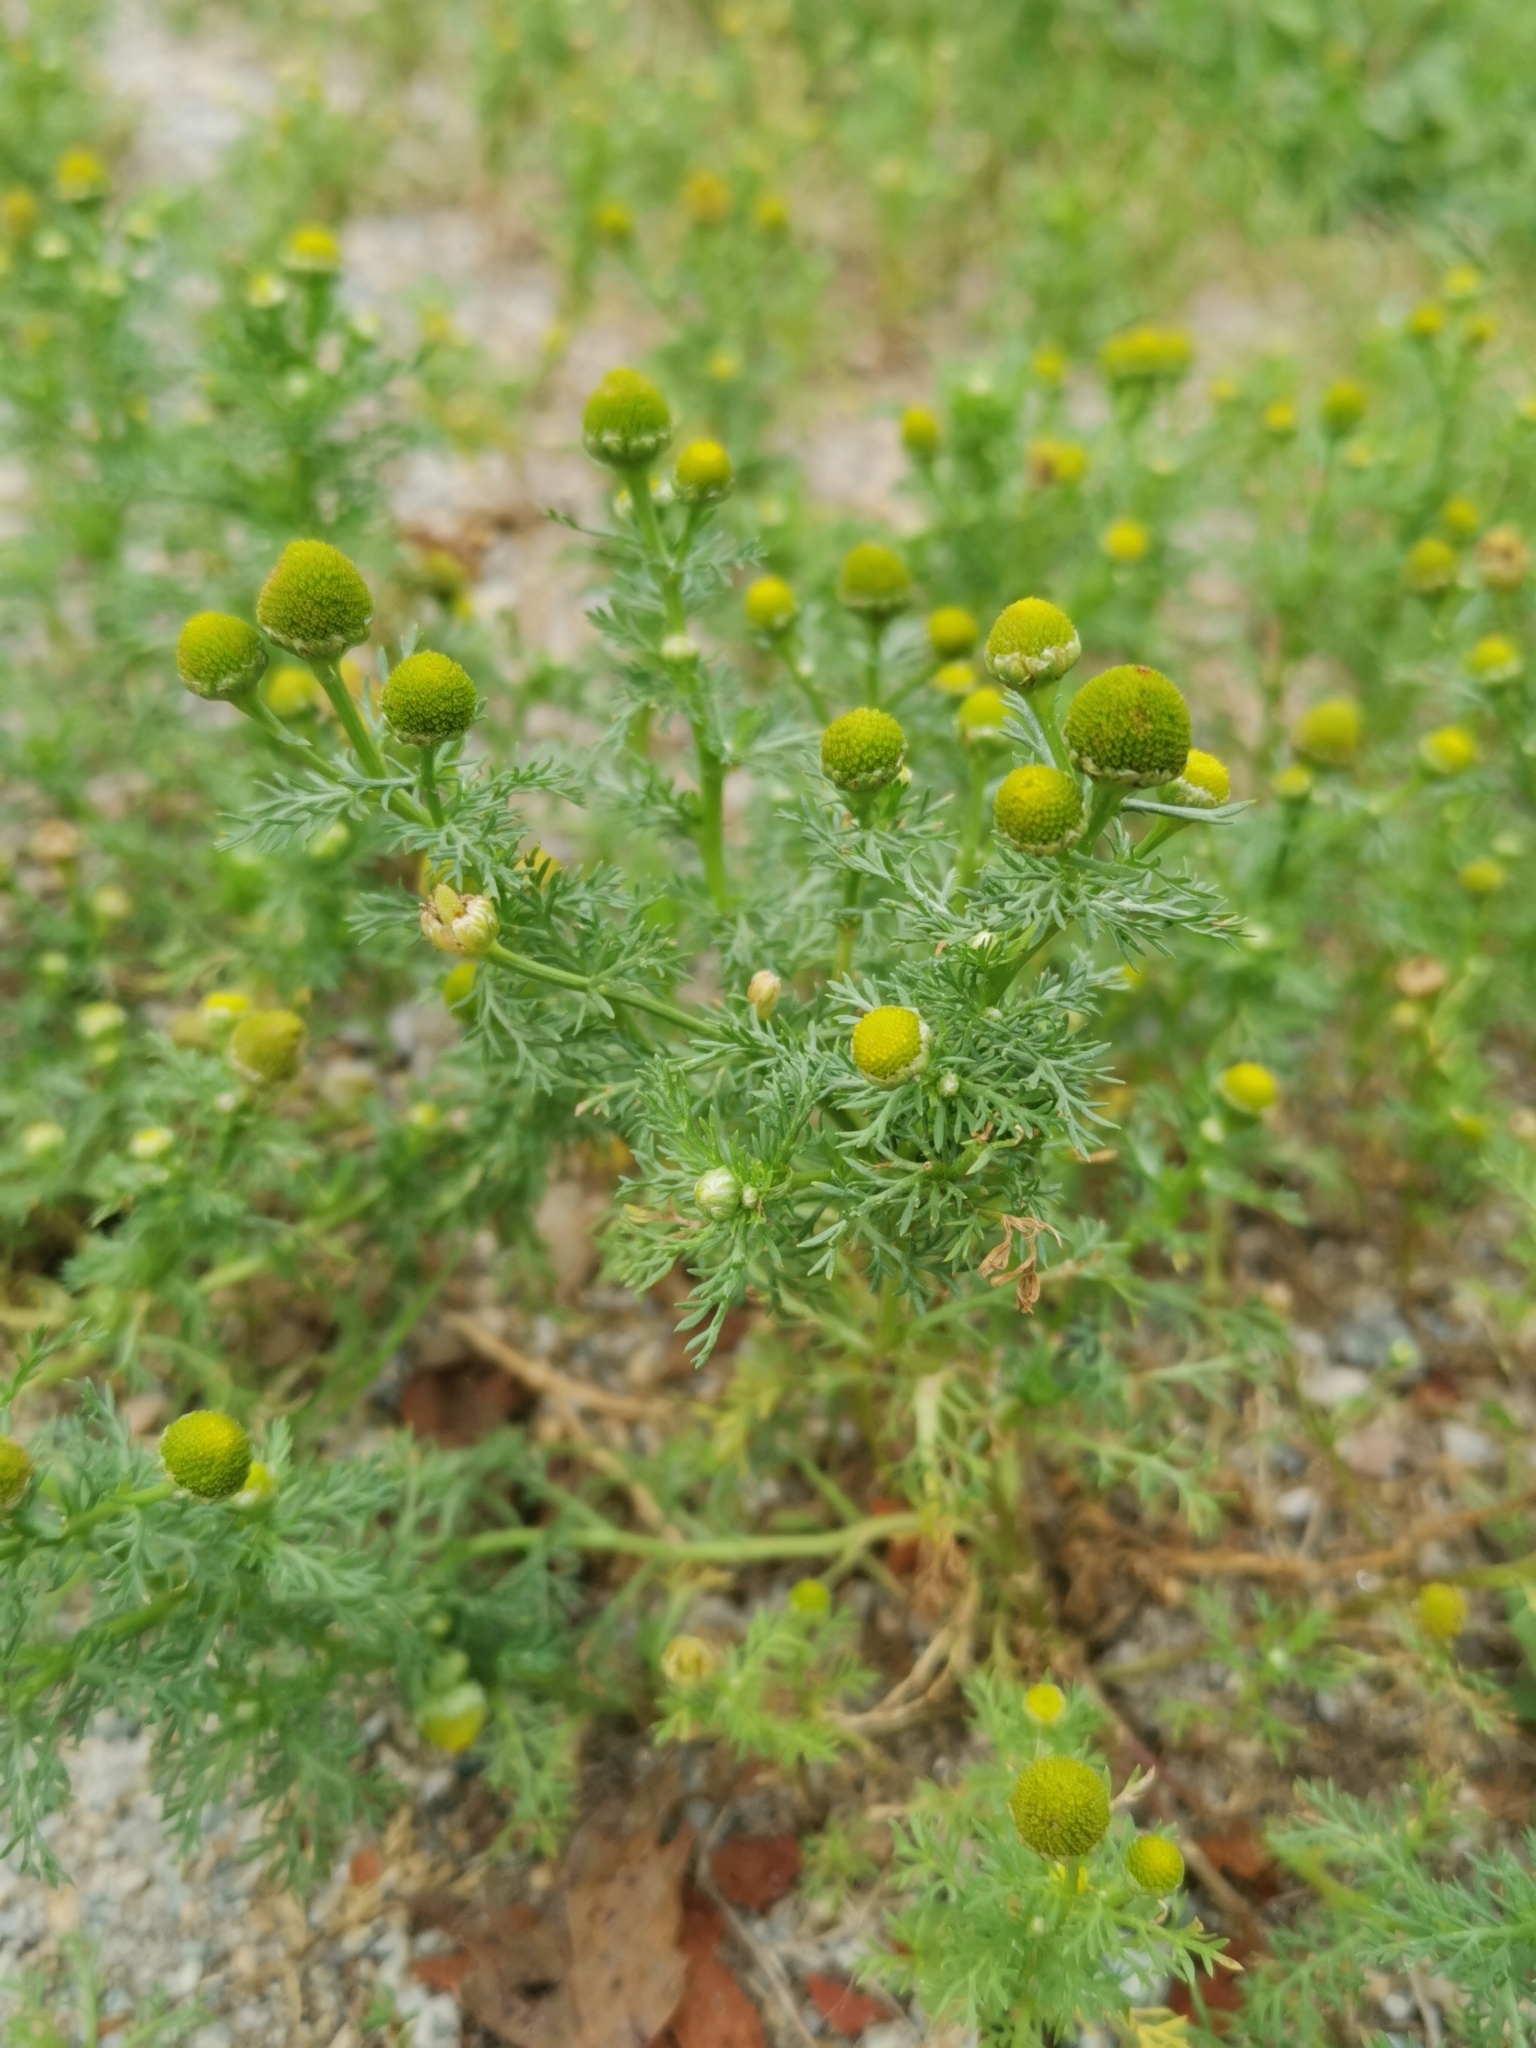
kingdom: Plantae
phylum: Tracheophyta
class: Magnoliopsida
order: Asterales
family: Asteraceae
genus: Matricaria
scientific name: Matricaria discoidea
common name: Disc mayweed
